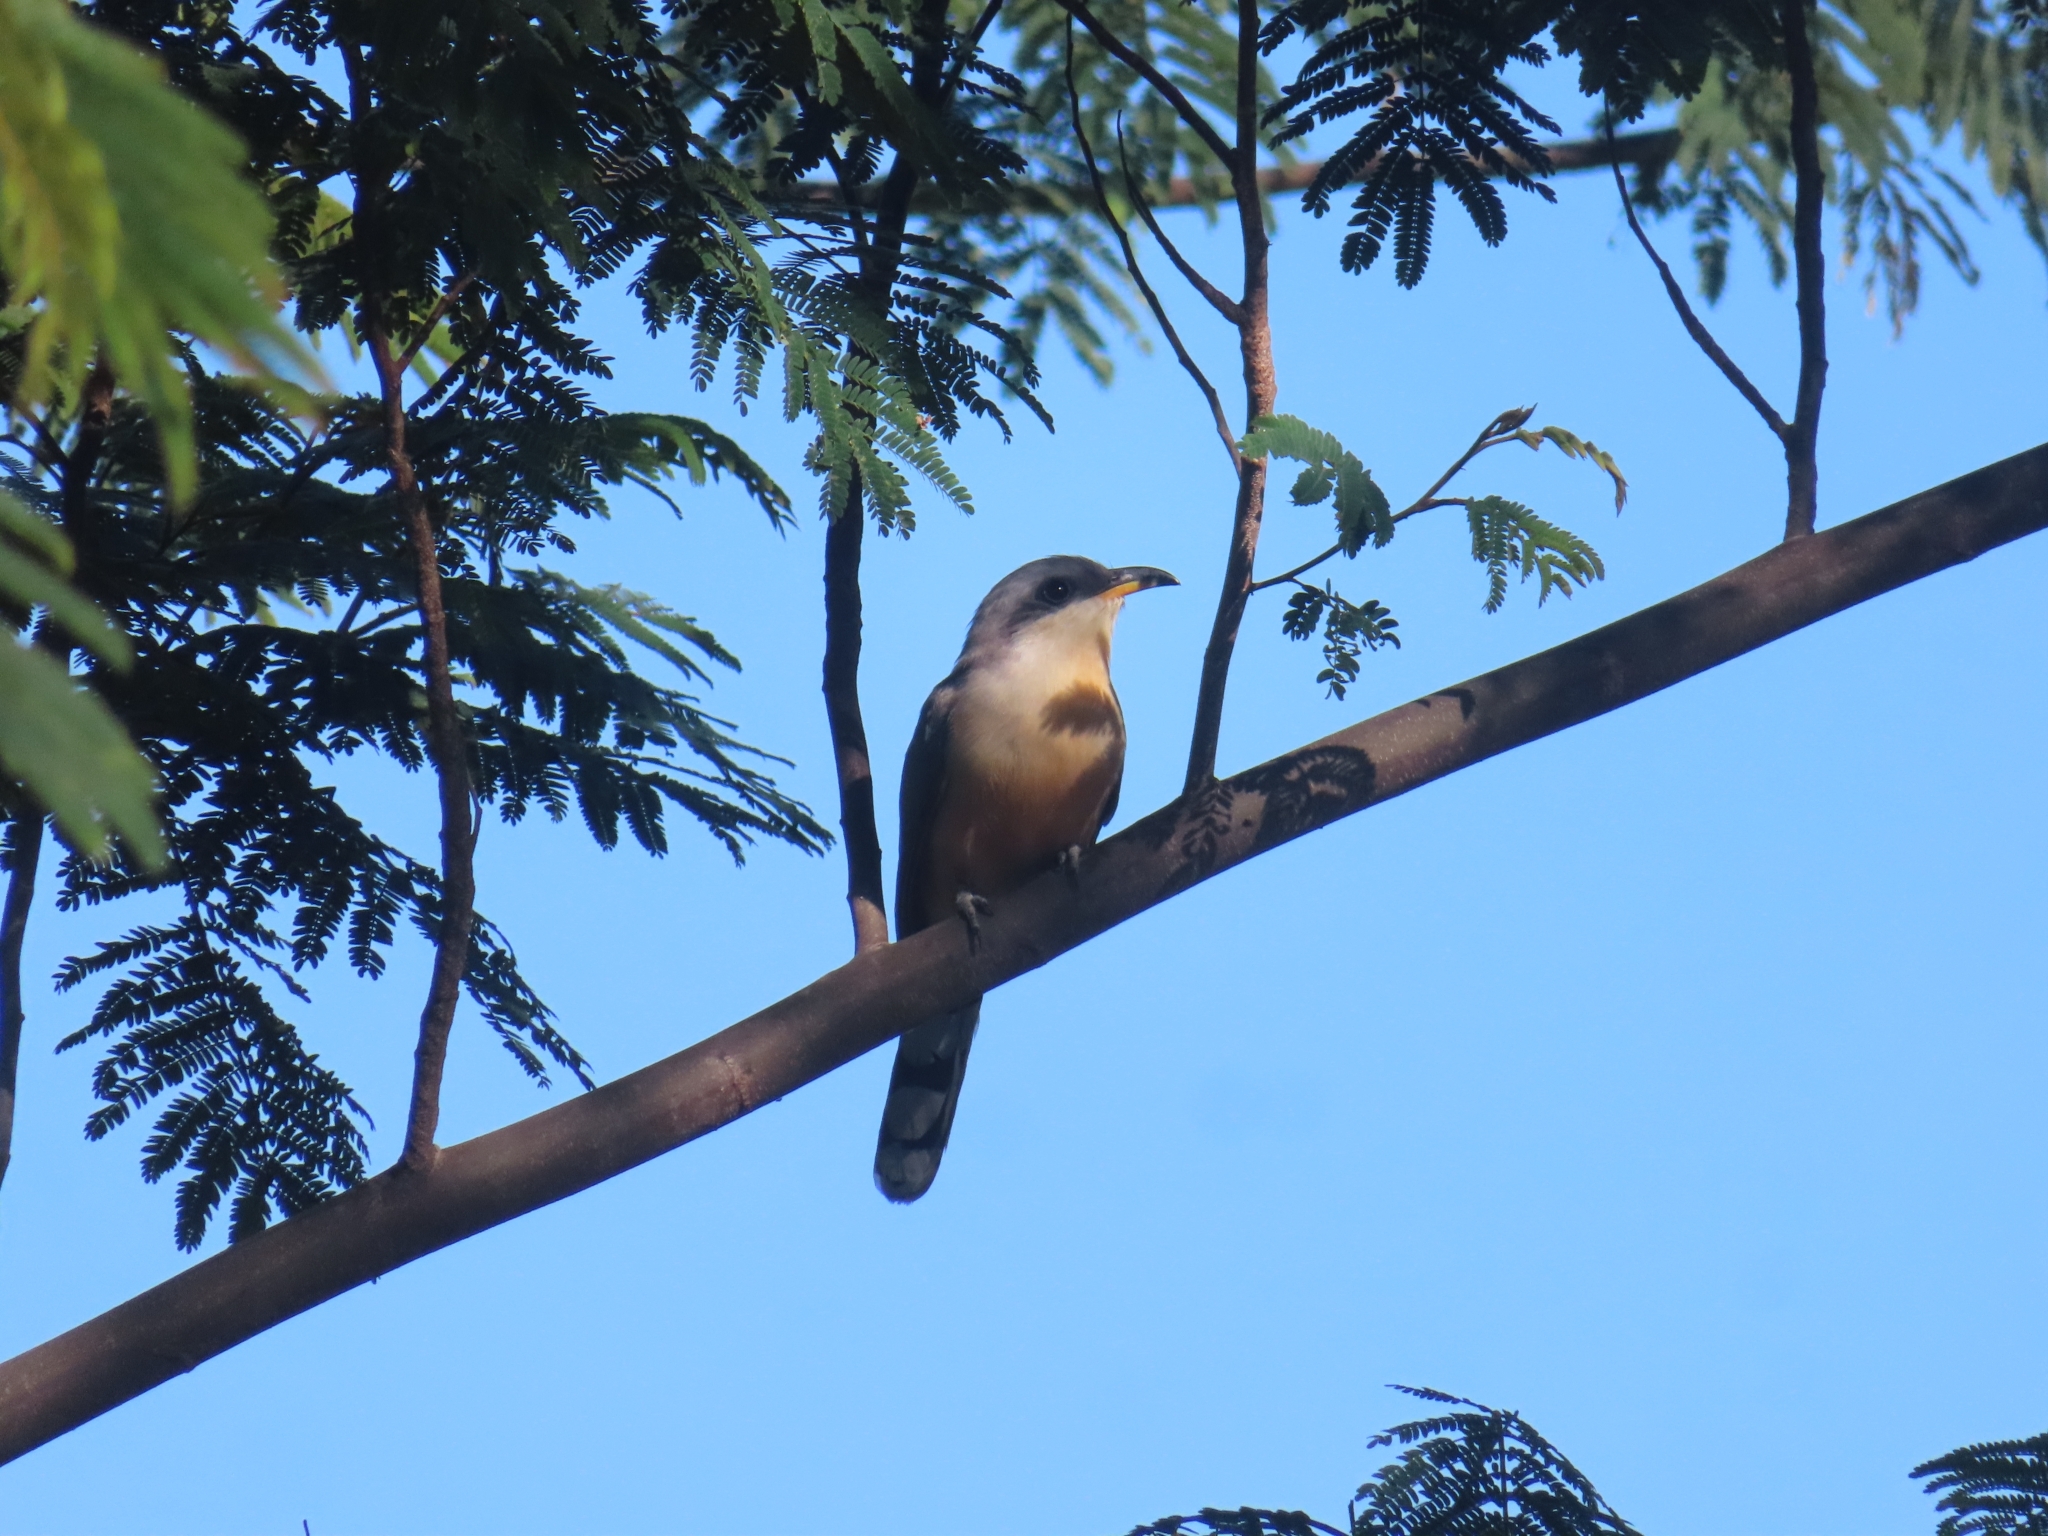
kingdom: Animalia
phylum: Chordata
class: Aves
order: Cuculiformes
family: Cuculidae
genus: Coccyzus
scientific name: Coccyzus minor
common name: Mangrove cuckoo
